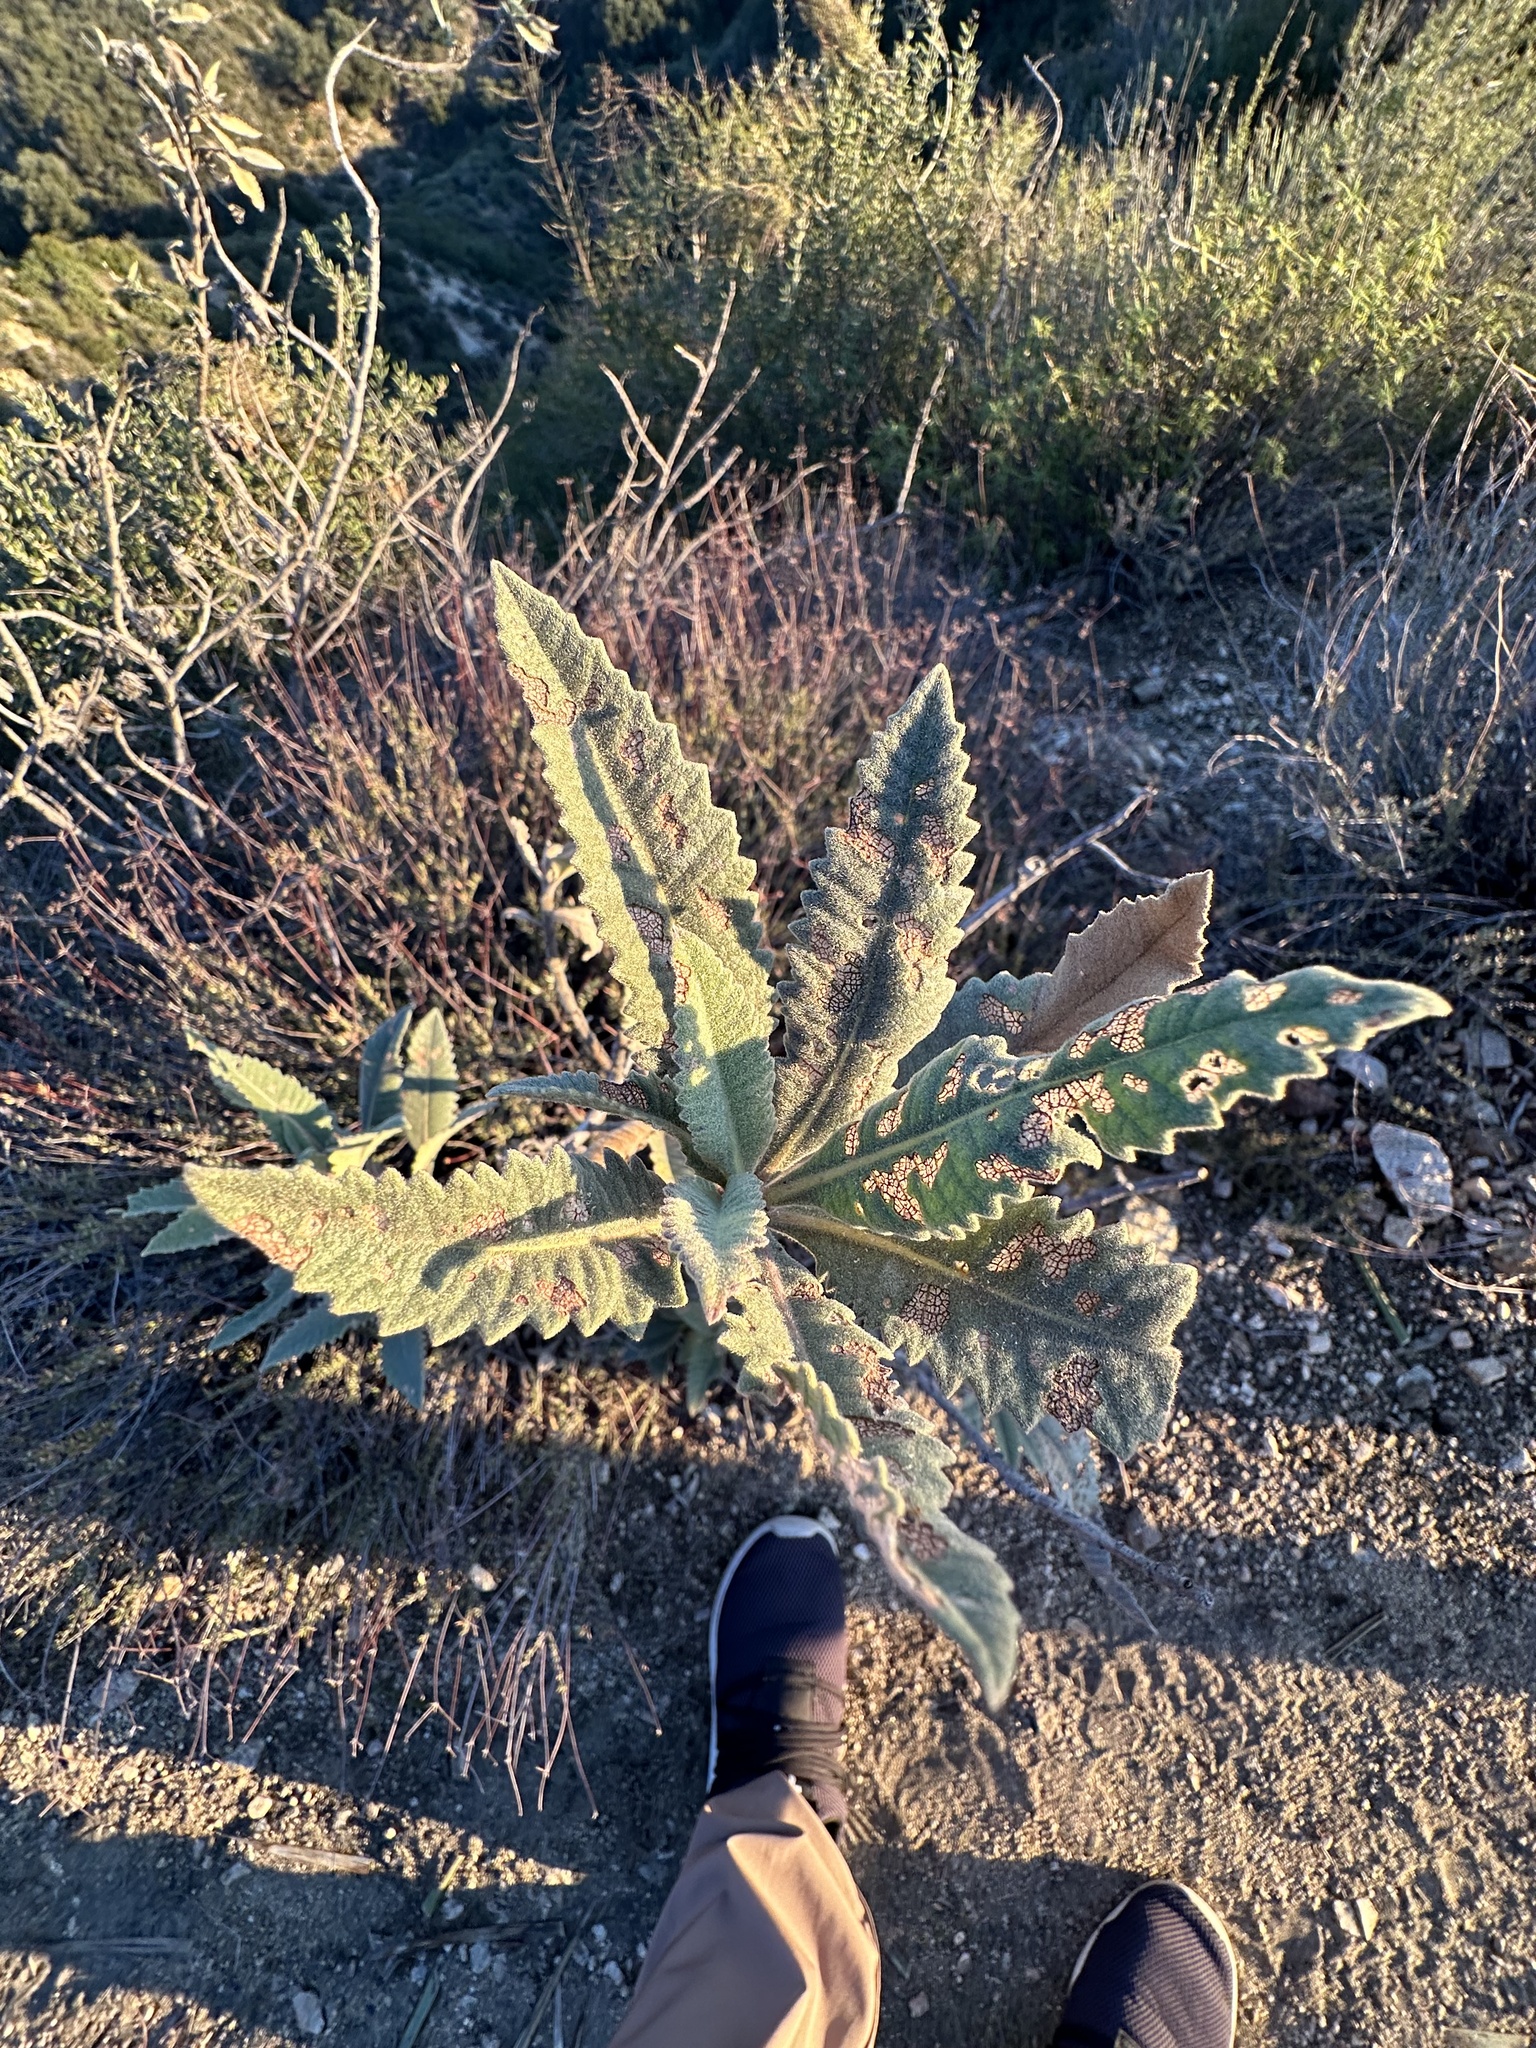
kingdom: Plantae
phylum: Tracheophyta
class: Magnoliopsida
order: Boraginales
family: Namaceae
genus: Eriodictyon
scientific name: Eriodictyon crassifolium
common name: Thick-leaf yerba-santa
